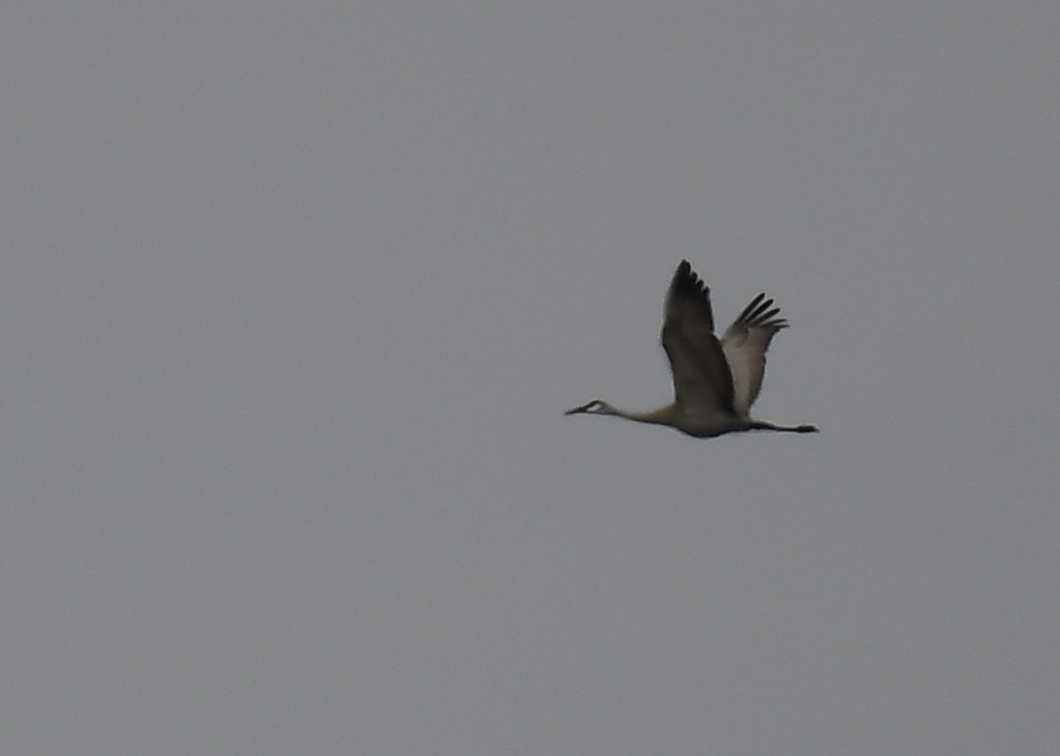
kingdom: Animalia
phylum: Chordata
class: Aves
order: Gruiformes
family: Gruidae
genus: Grus
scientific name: Grus canadensis
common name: Sandhill crane
